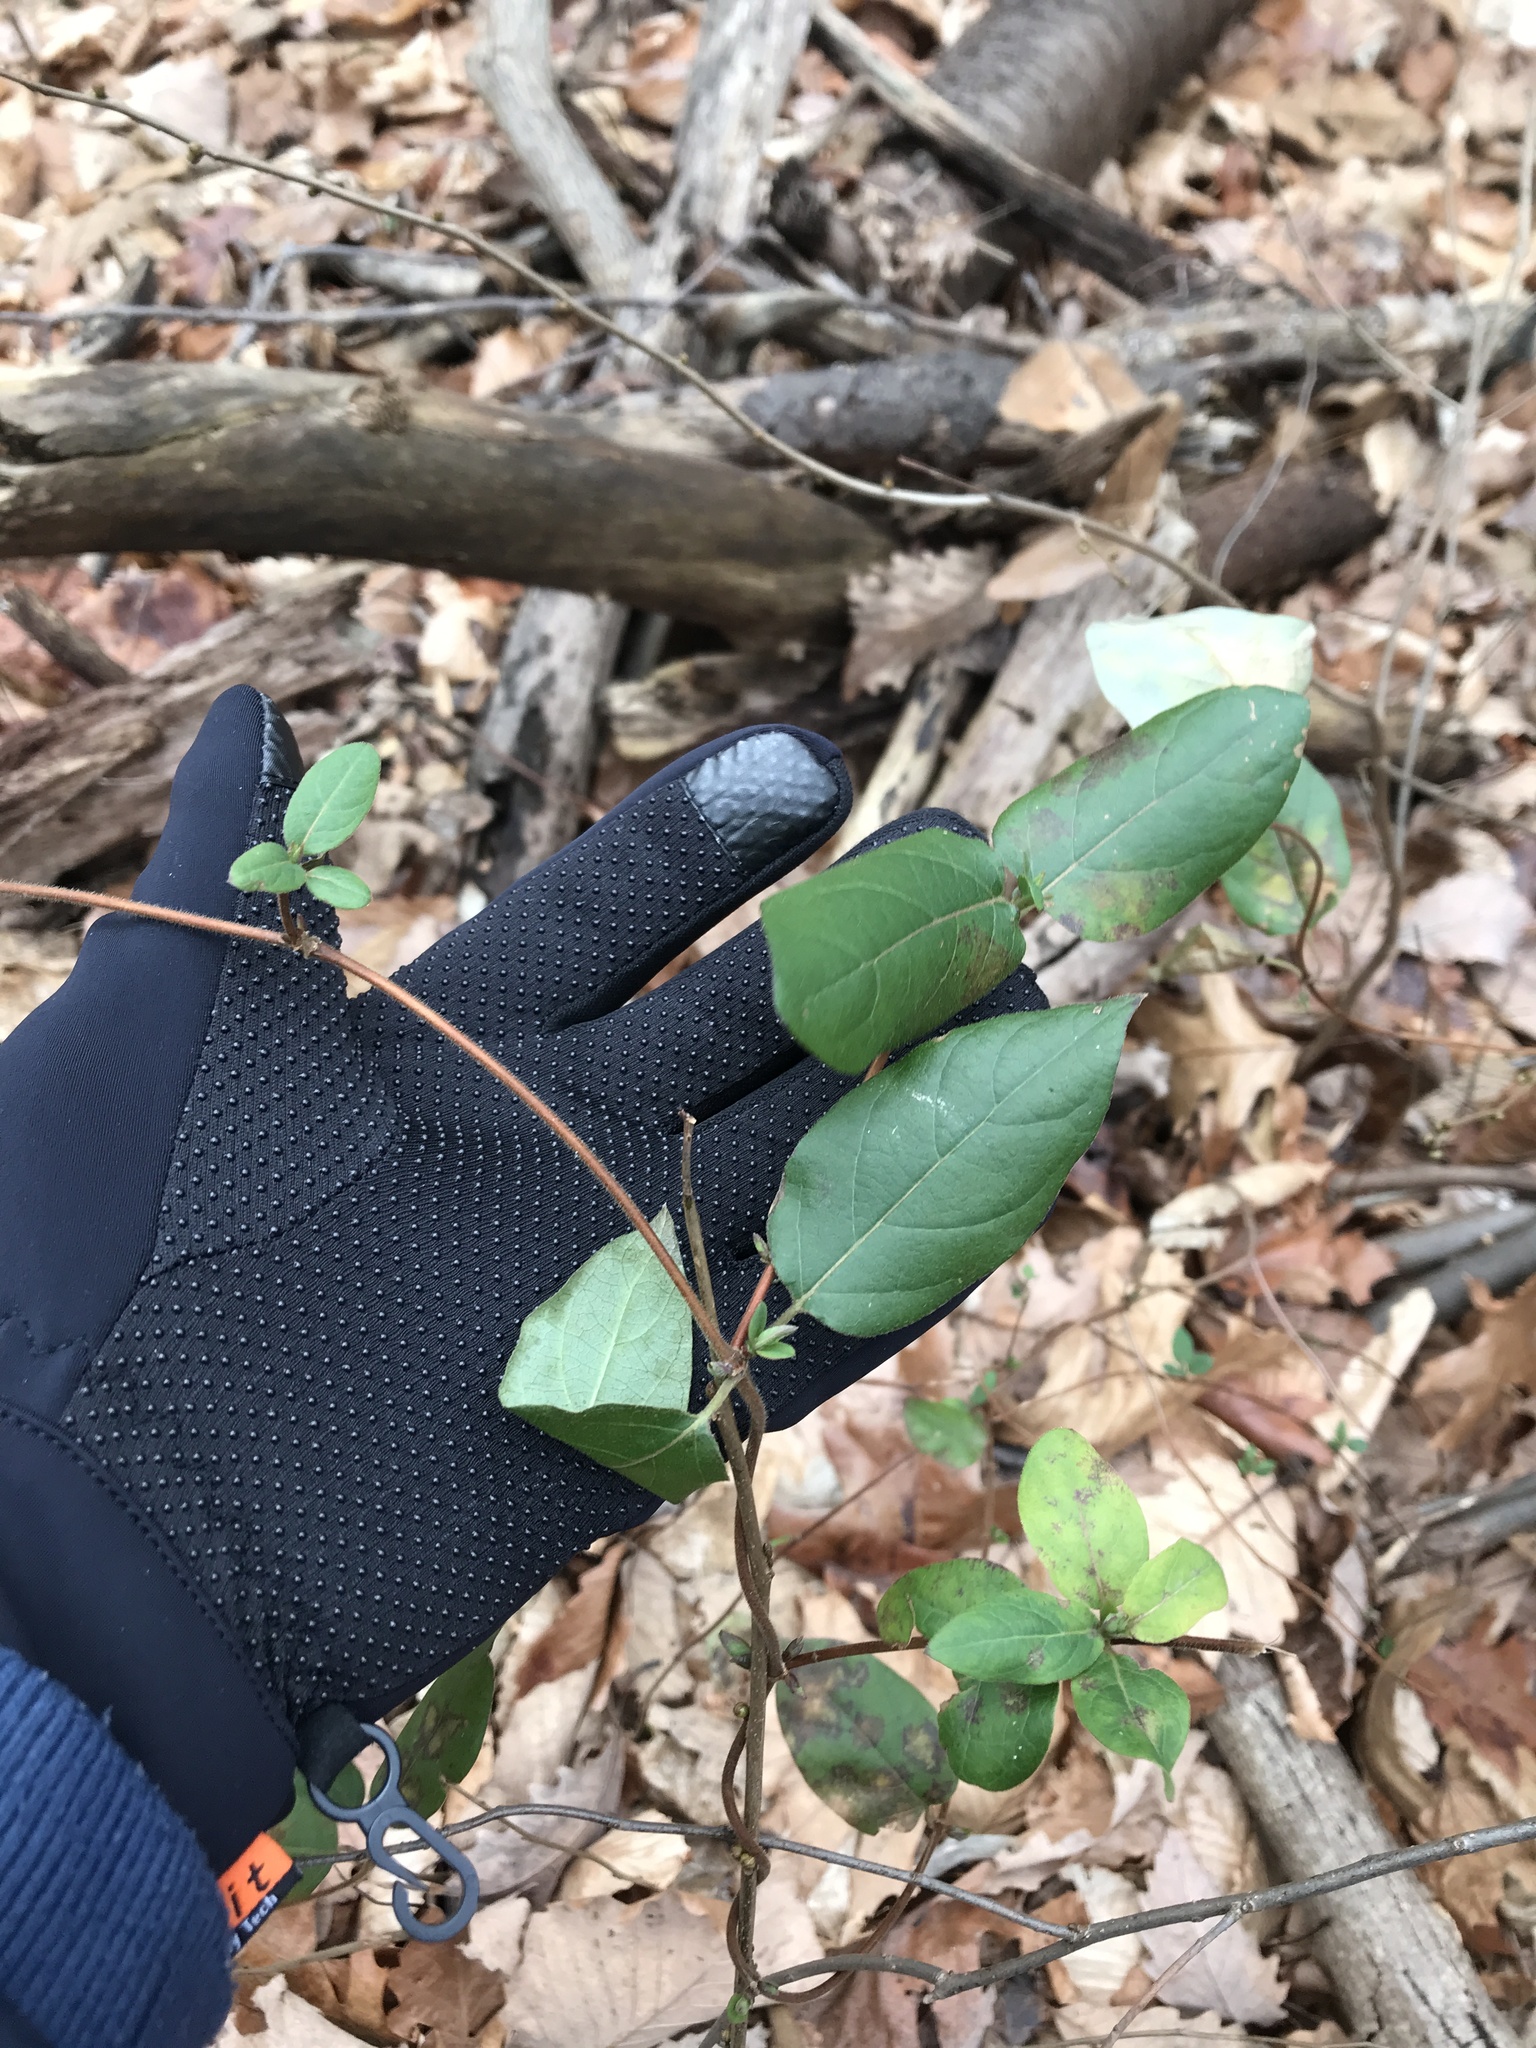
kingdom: Plantae
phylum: Tracheophyta
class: Magnoliopsida
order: Dipsacales
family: Caprifoliaceae
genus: Lonicera
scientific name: Lonicera japonica
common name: Japanese honeysuckle
